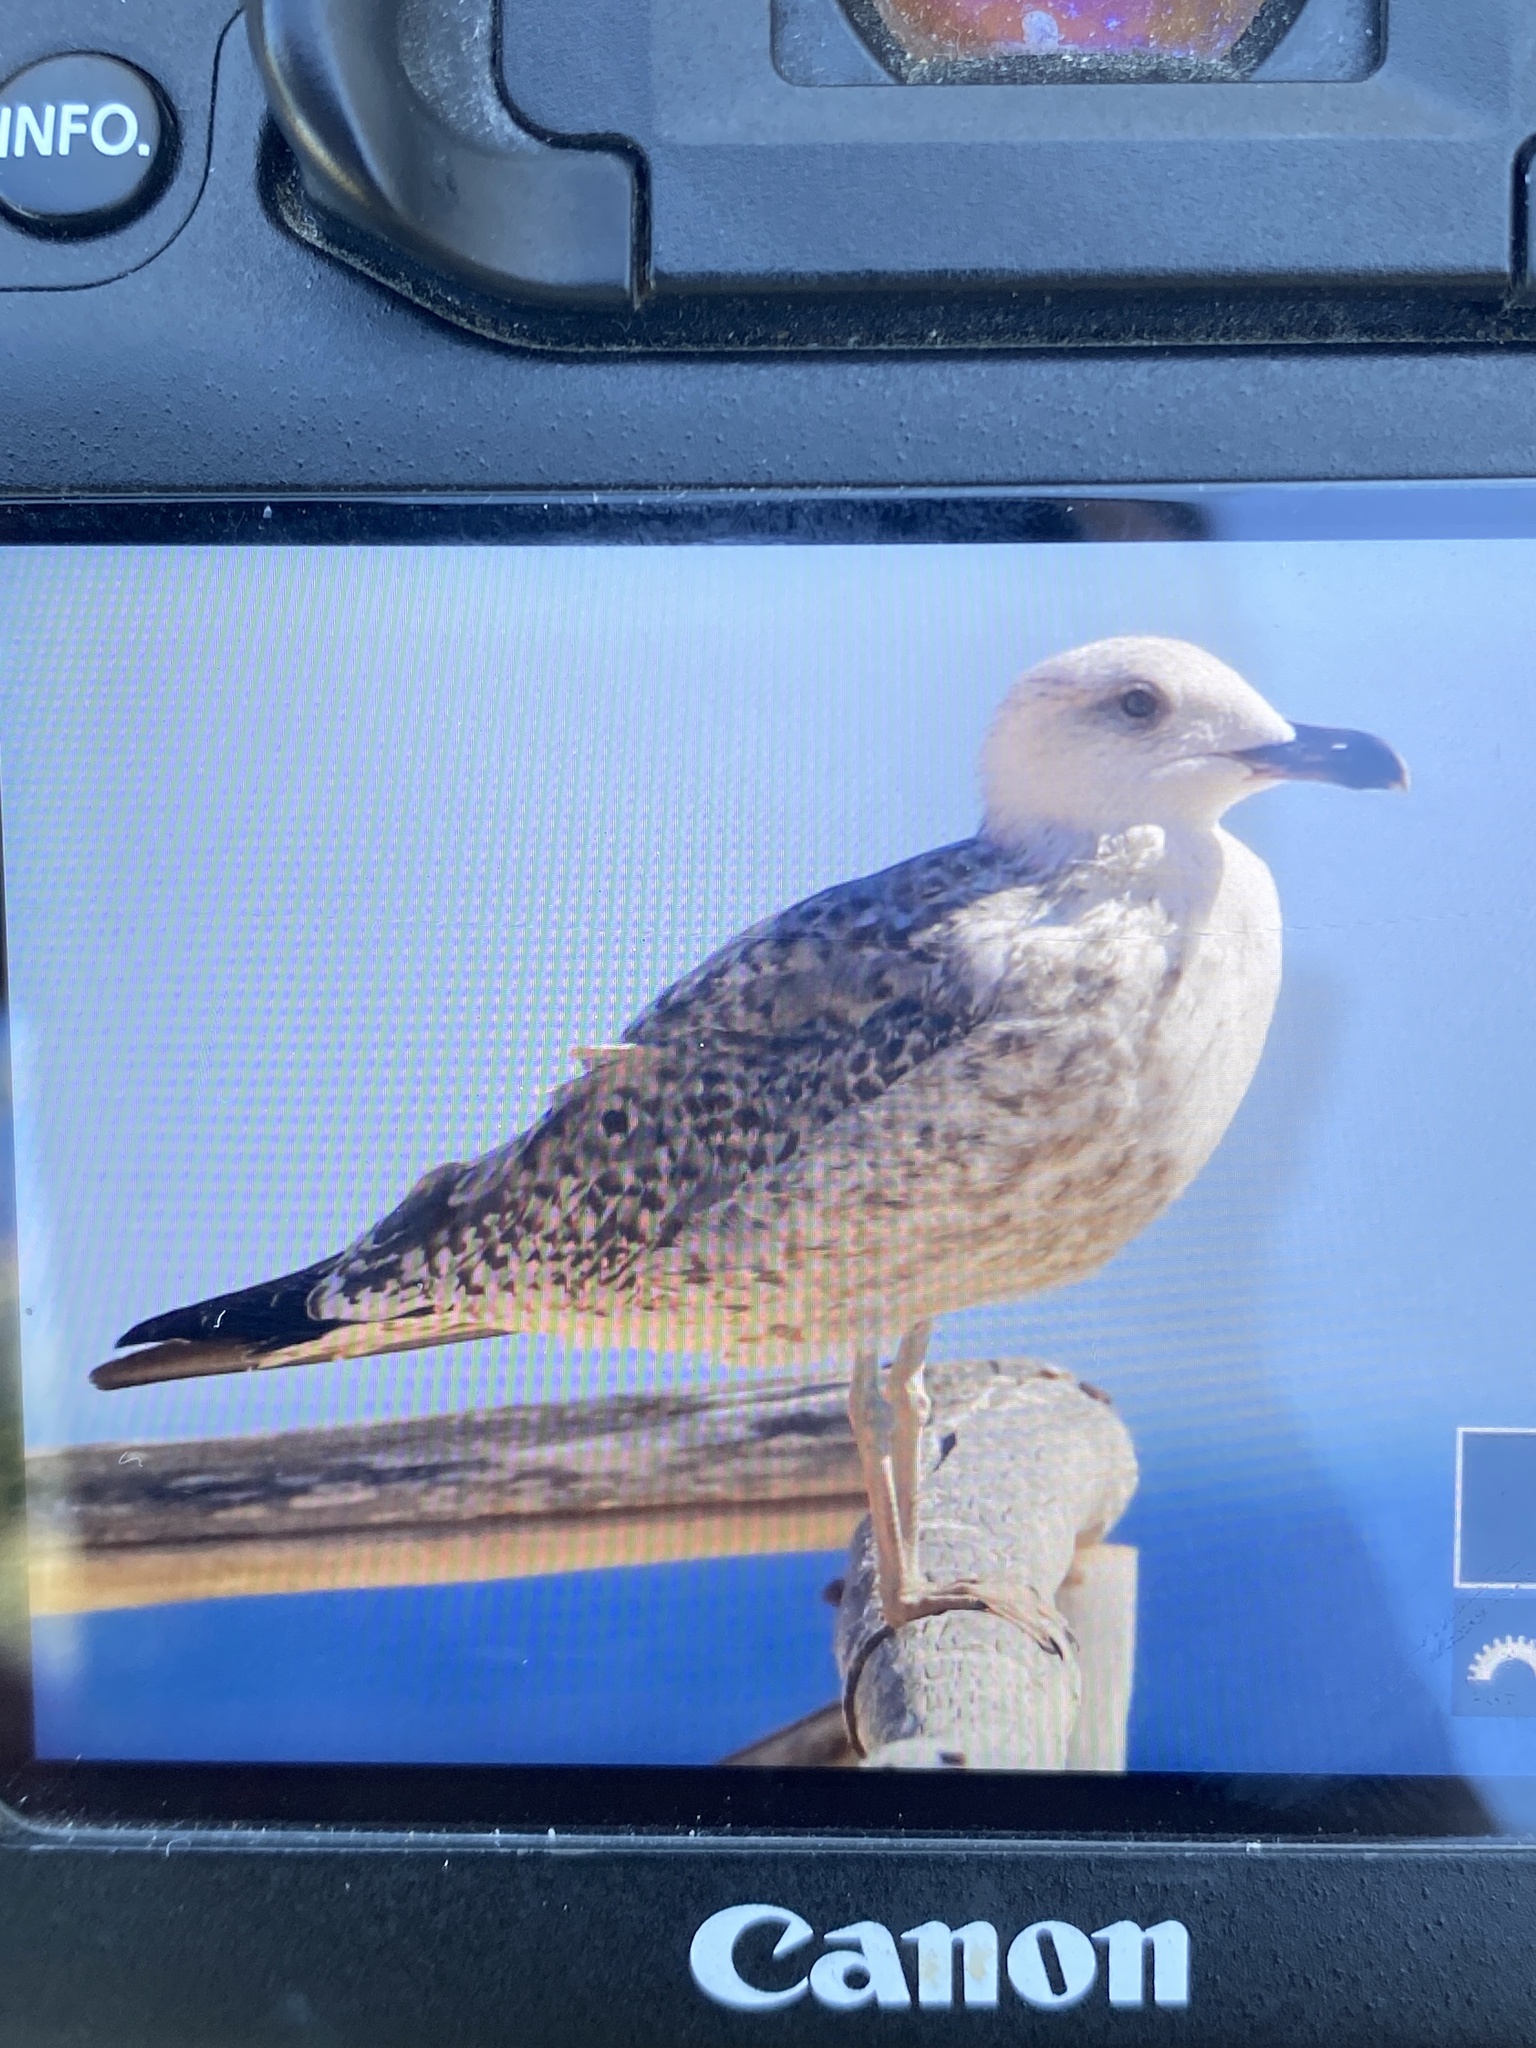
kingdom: Animalia
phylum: Chordata
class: Aves
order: Charadriiformes
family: Laridae
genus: Larus
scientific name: Larus michahellis
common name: Yellow-legged gull
